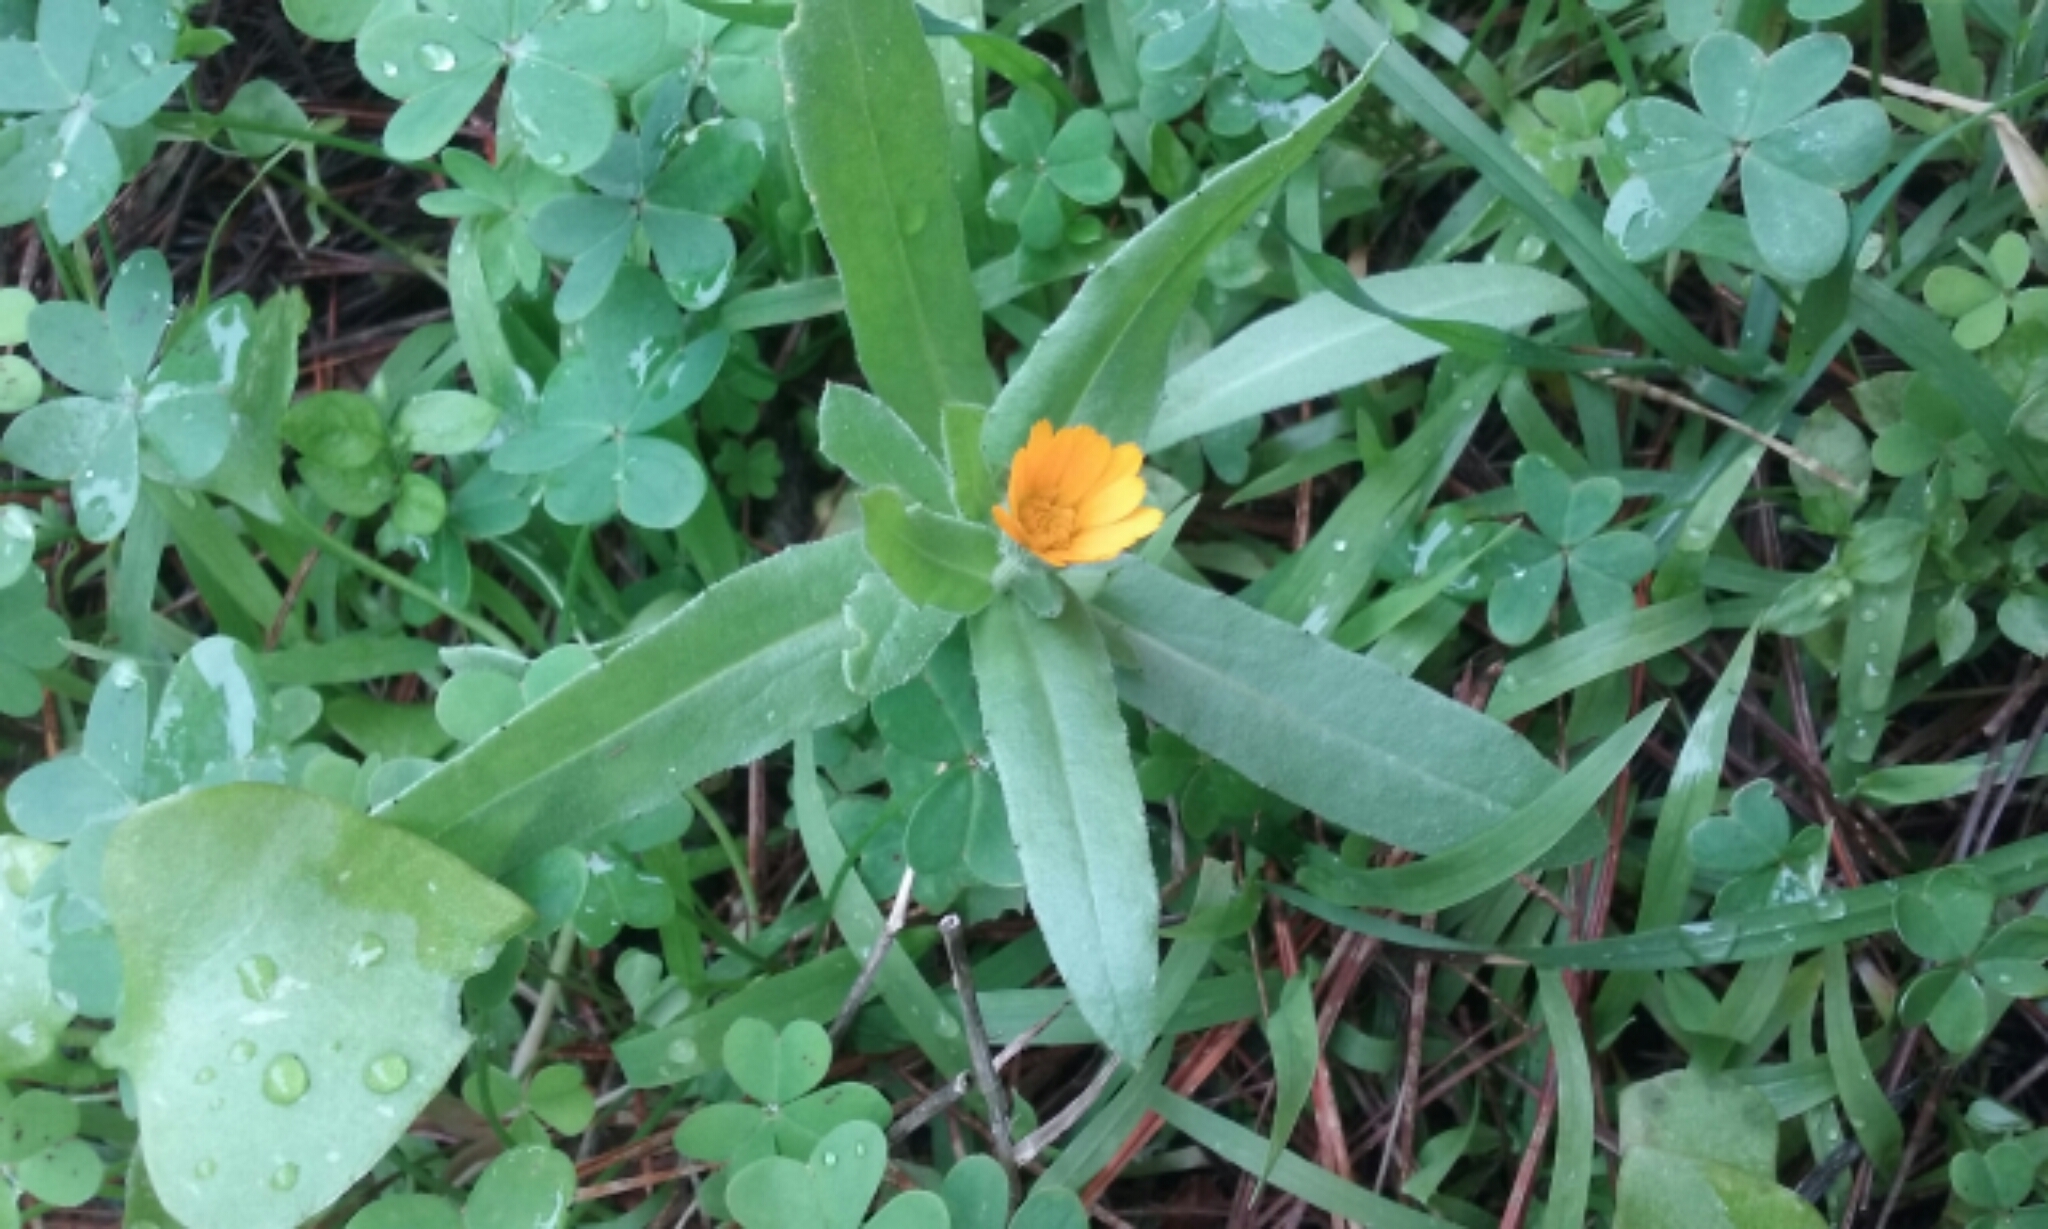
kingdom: Plantae
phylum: Tracheophyta
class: Magnoliopsida
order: Asterales
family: Asteraceae
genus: Calendula
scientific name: Calendula arvensis
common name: Field marigold
